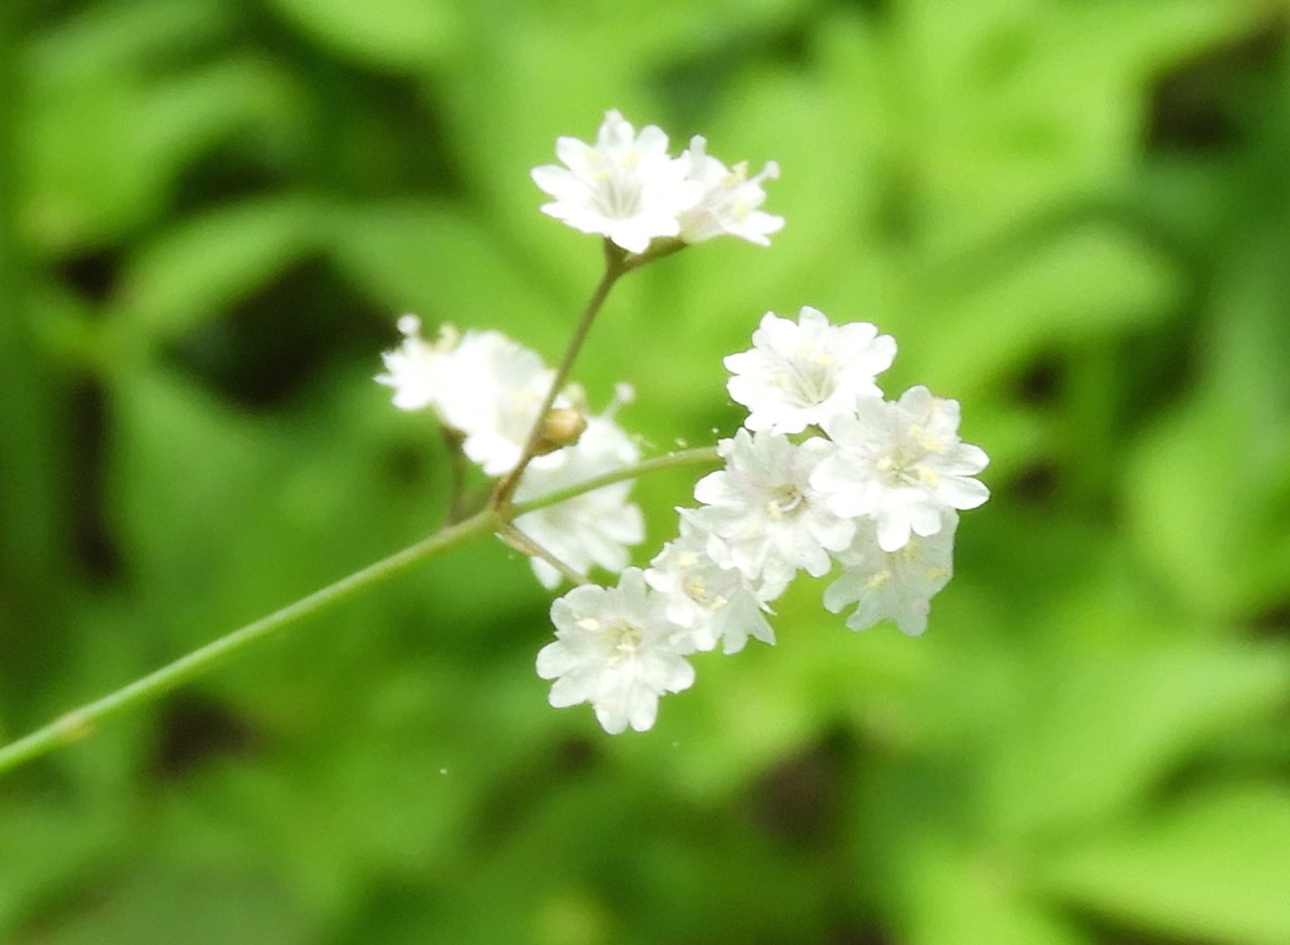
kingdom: Plantae
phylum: Tracheophyta
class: Magnoliopsida
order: Caryophyllales
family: Nyctaginaceae
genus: Boerhavia
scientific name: Boerhavia
